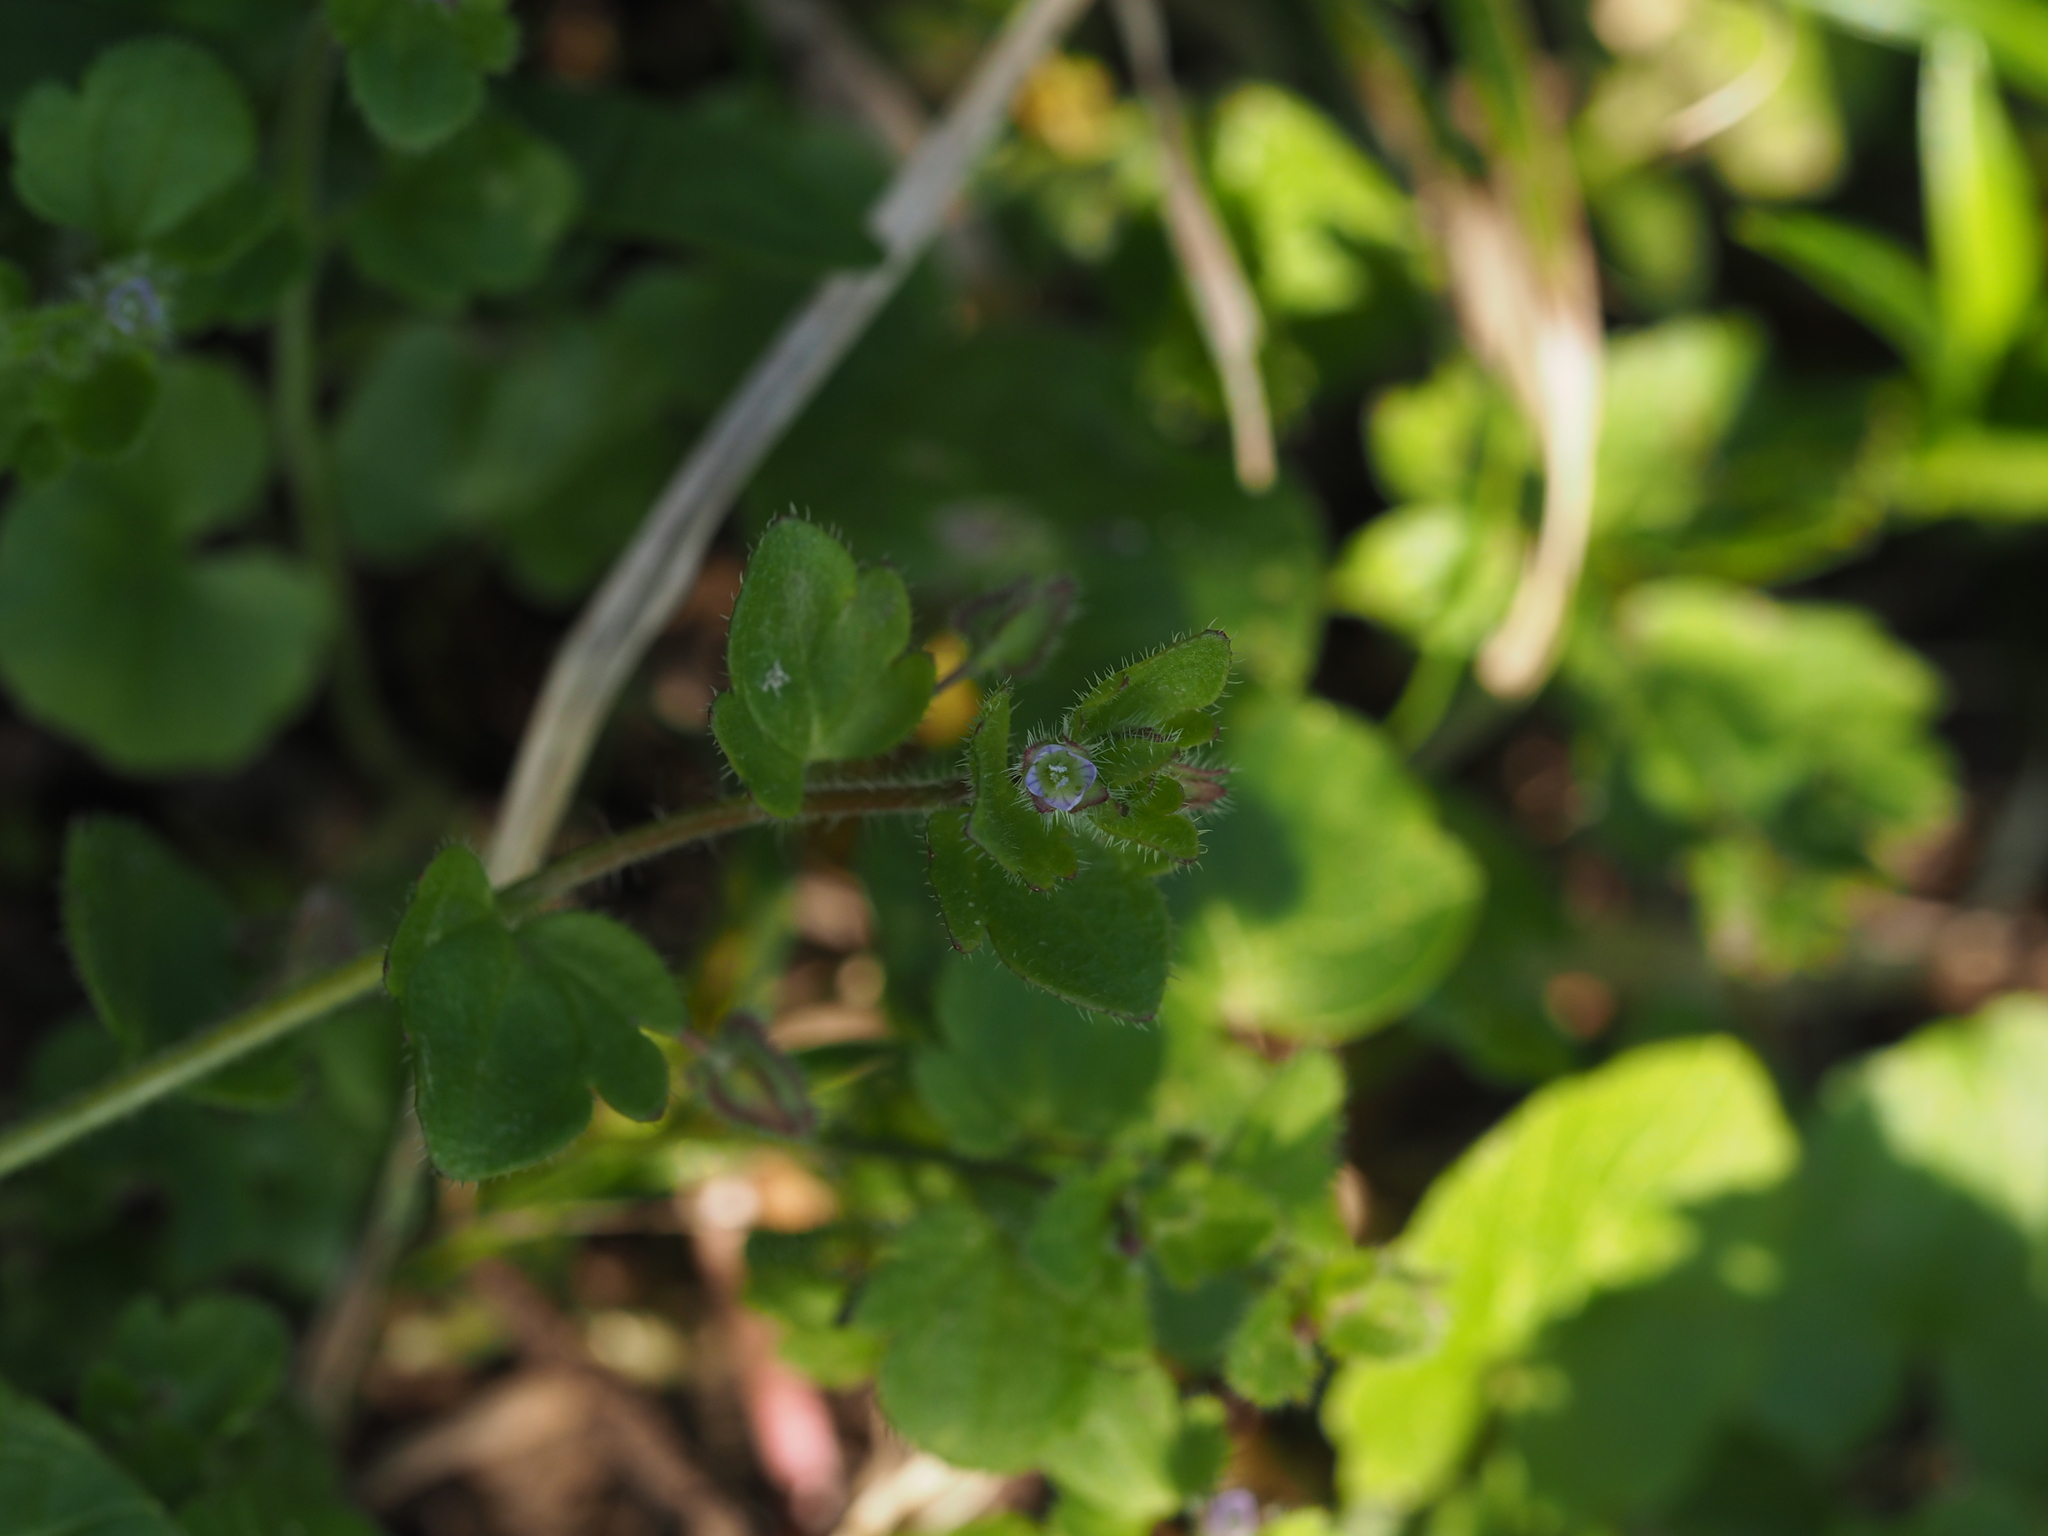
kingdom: Plantae
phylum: Tracheophyta
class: Magnoliopsida
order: Lamiales
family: Plantaginaceae
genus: Veronica
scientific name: Veronica sublobata
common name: False ivy-leaved speedwell
